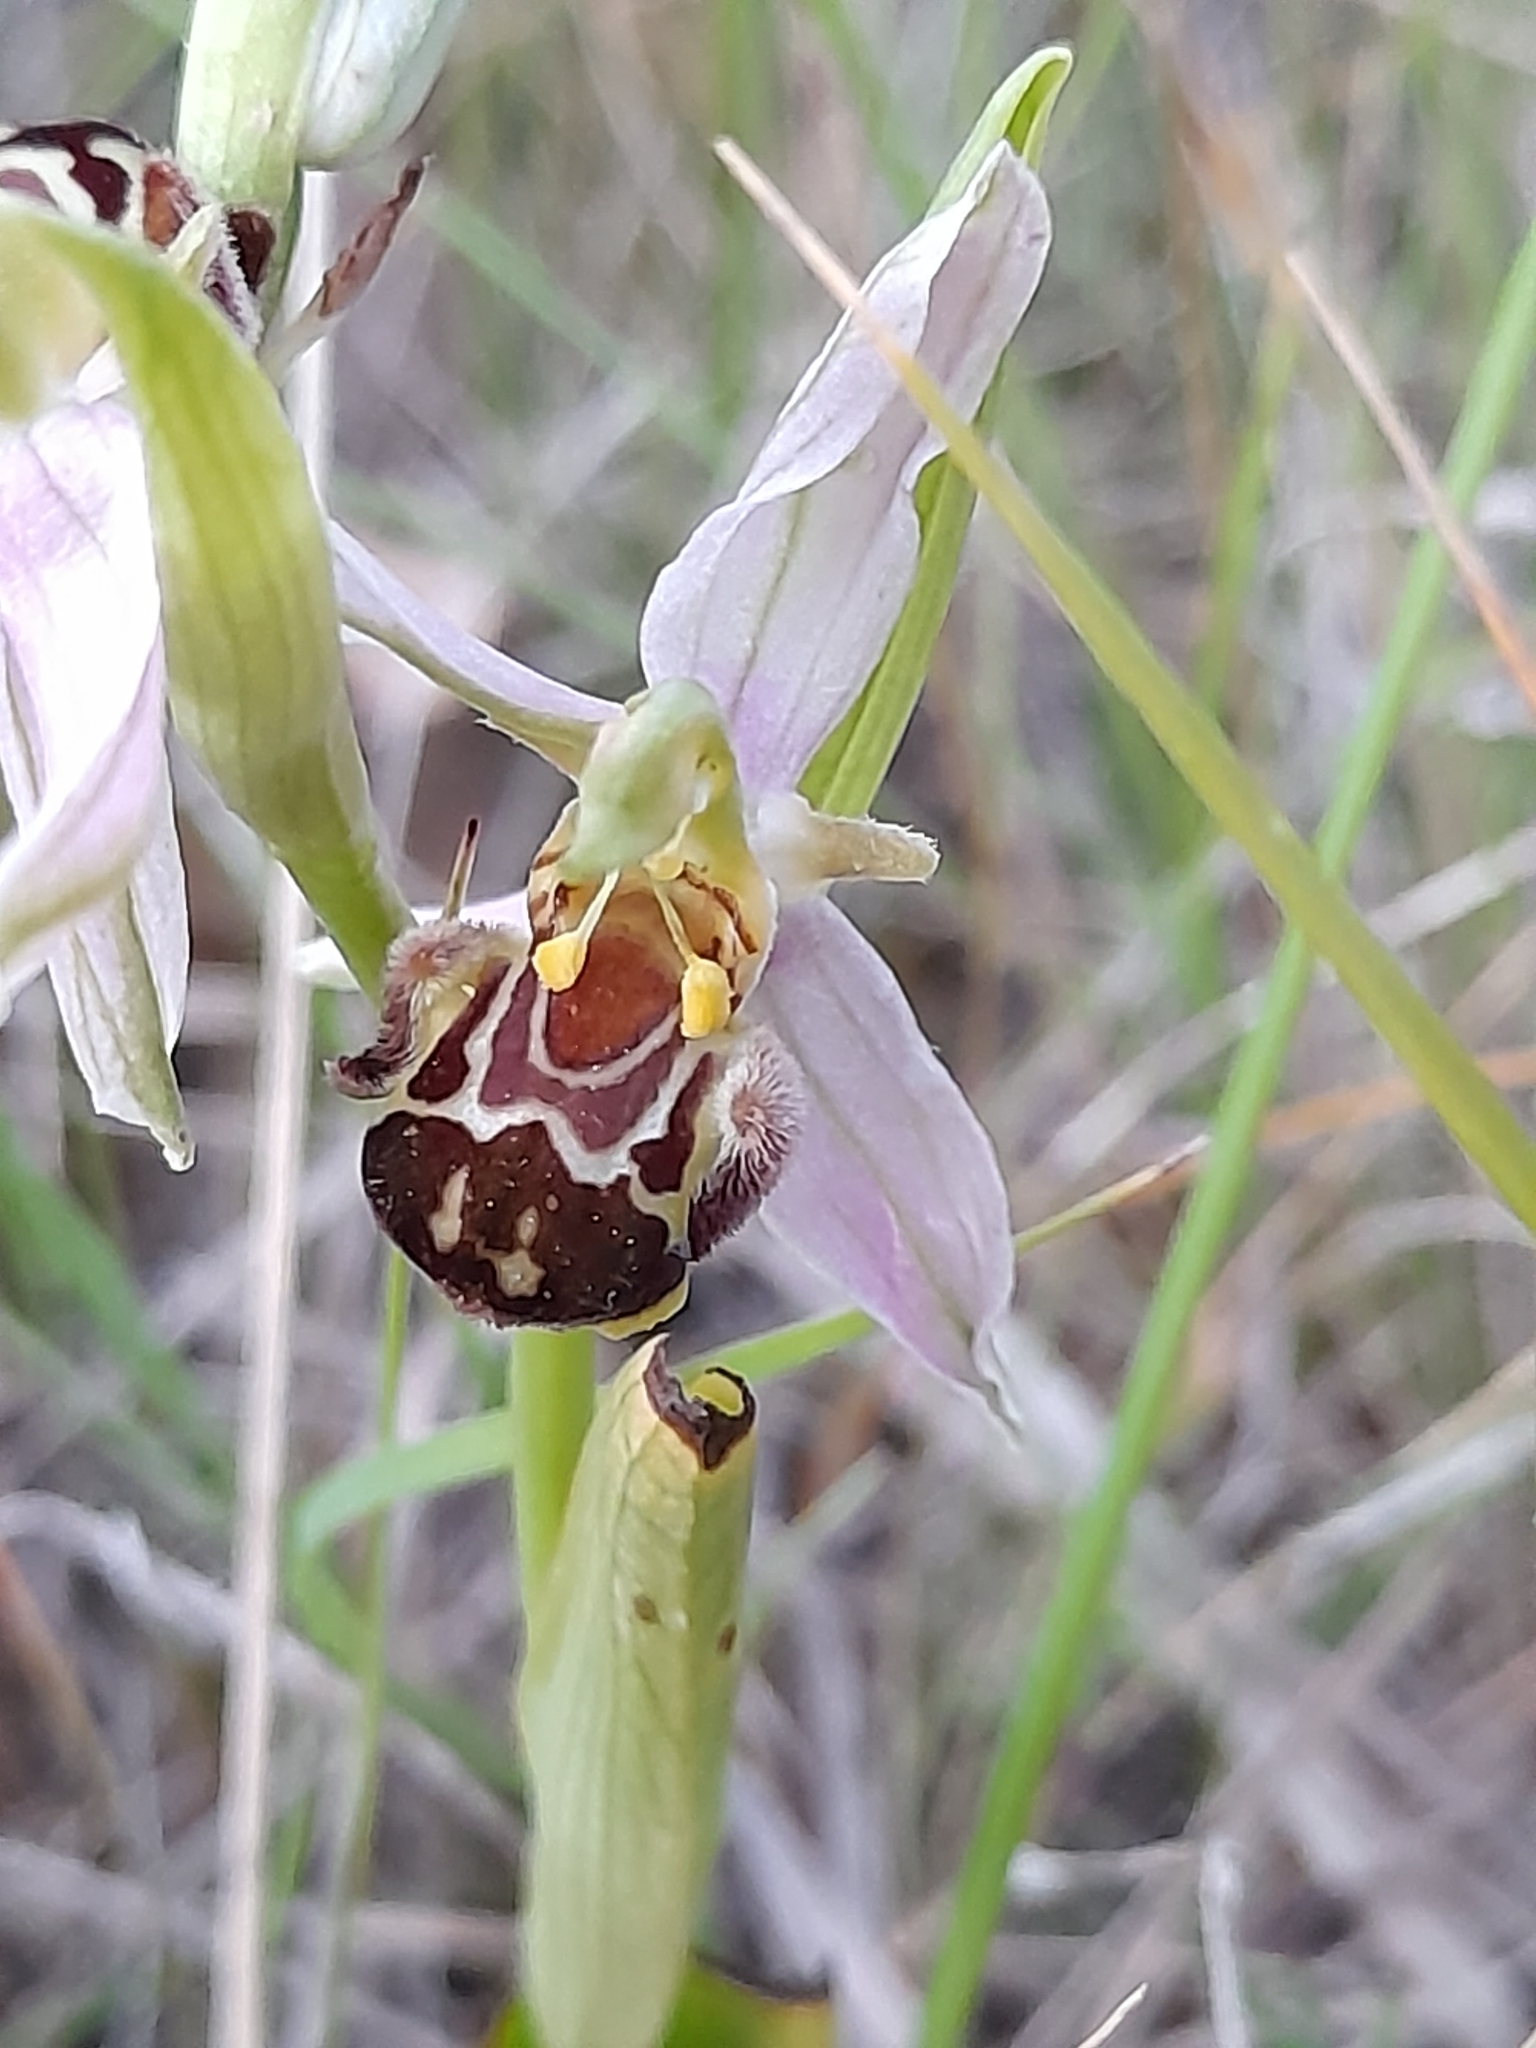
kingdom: Plantae
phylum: Tracheophyta
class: Liliopsida
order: Asparagales
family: Orchidaceae
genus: Ophrys
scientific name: Ophrys apifera
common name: Bee orchid
